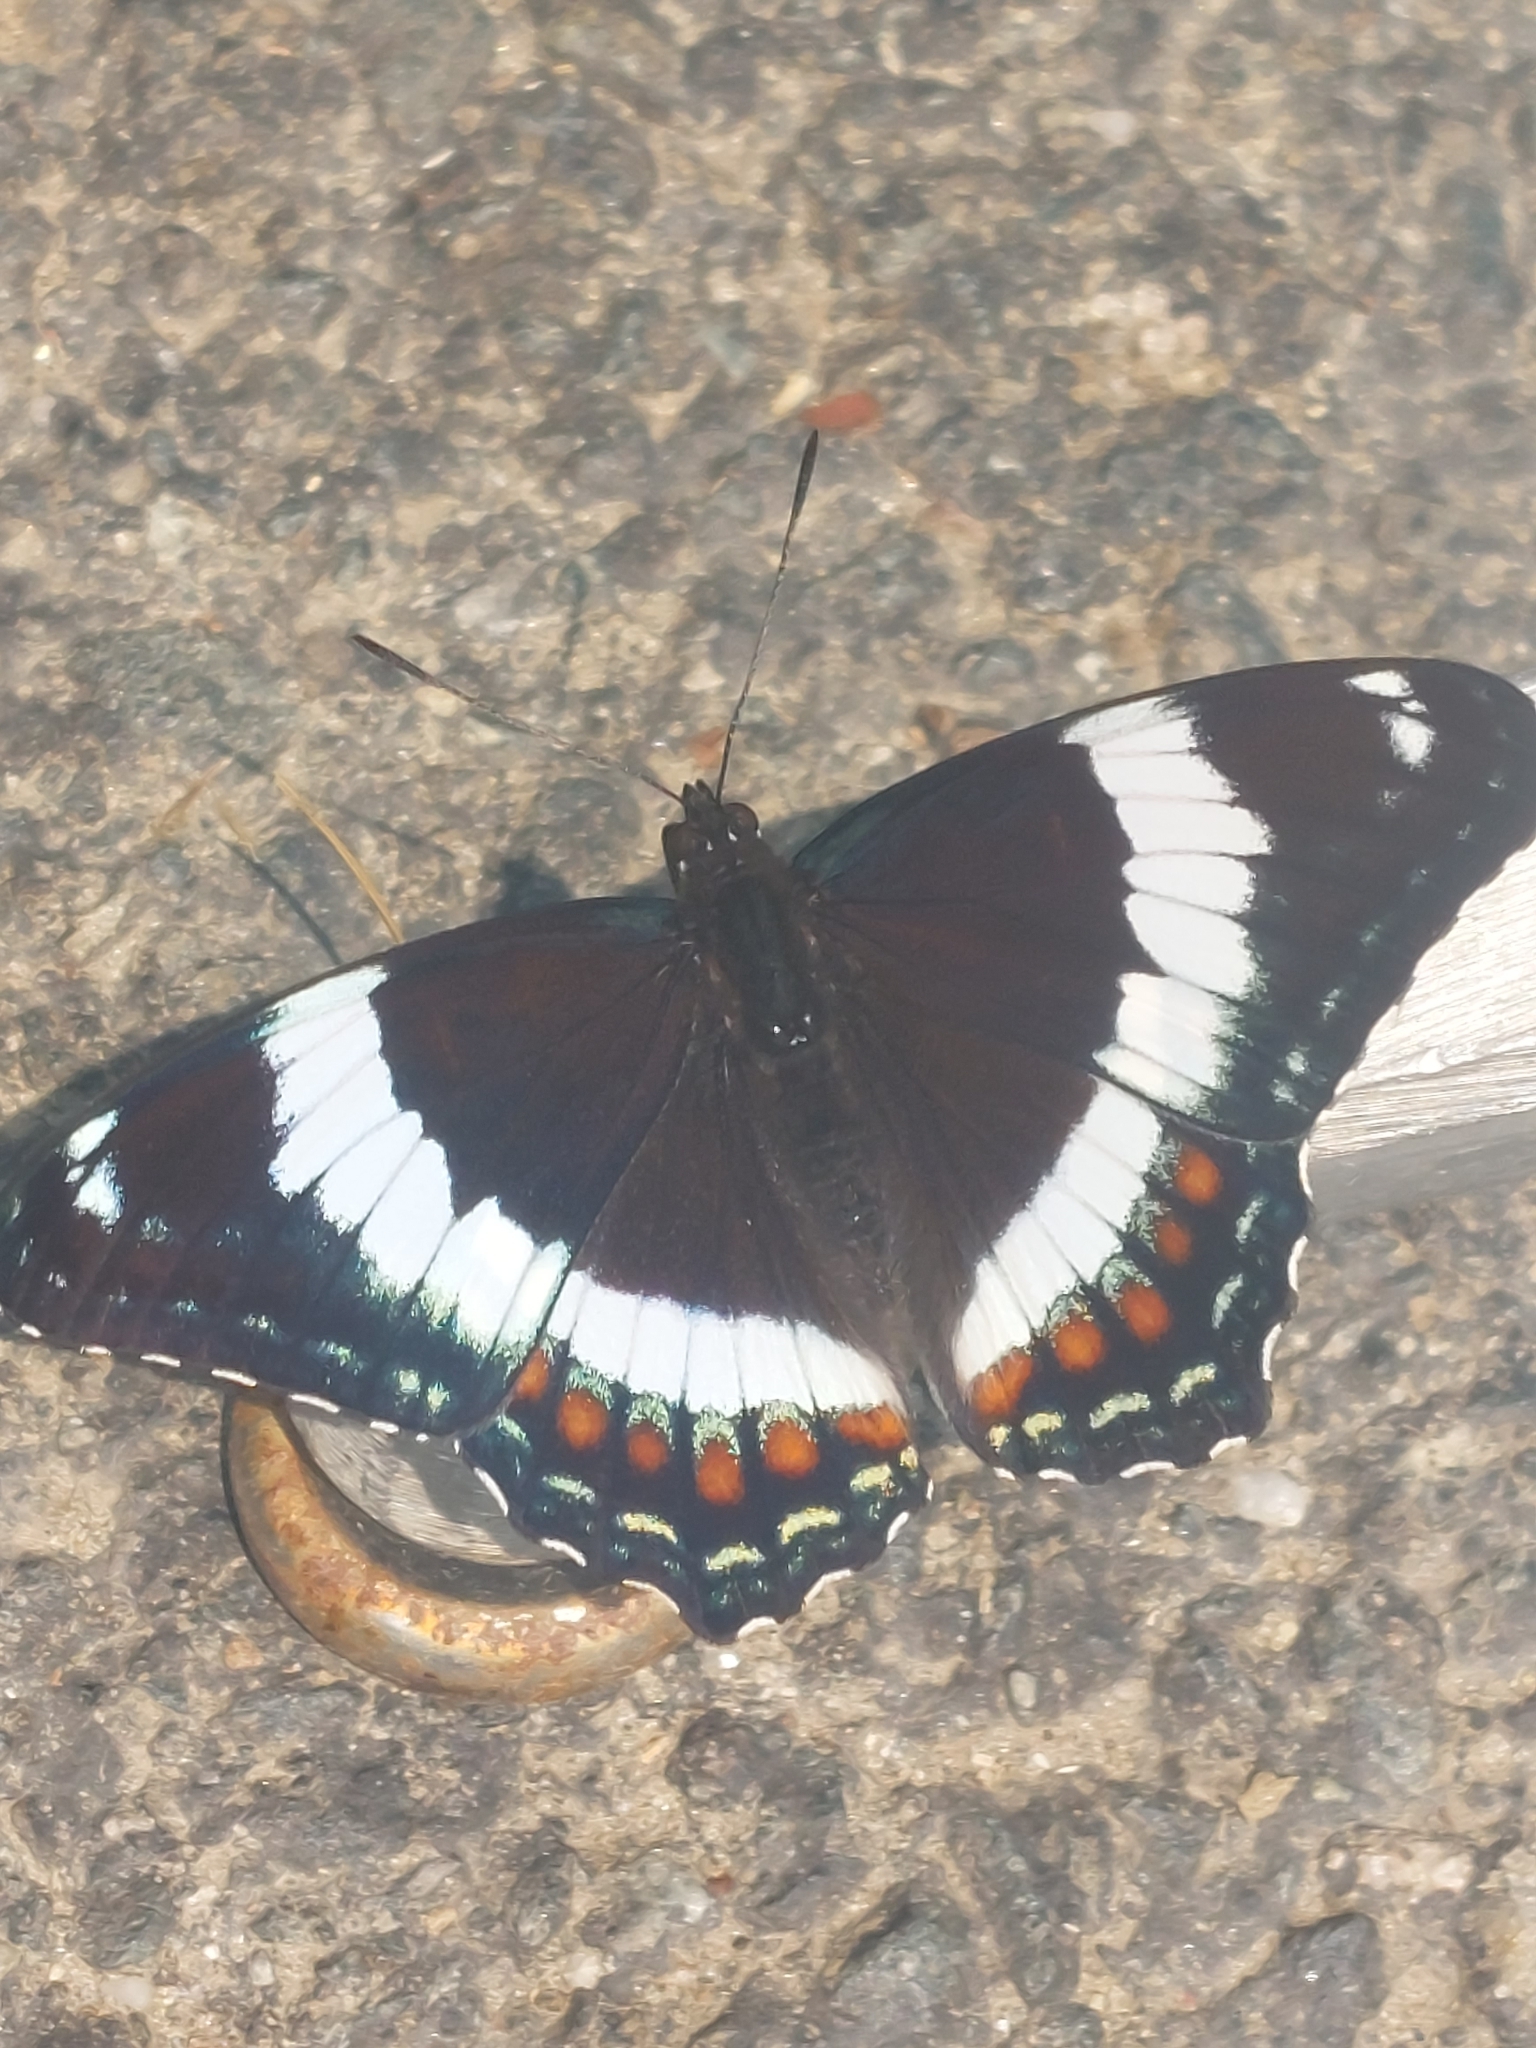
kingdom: Animalia
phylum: Arthropoda
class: Insecta
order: Lepidoptera
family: Nymphalidae
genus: Limenitis
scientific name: Limenitis arthemis
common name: Red-spotted admiral
